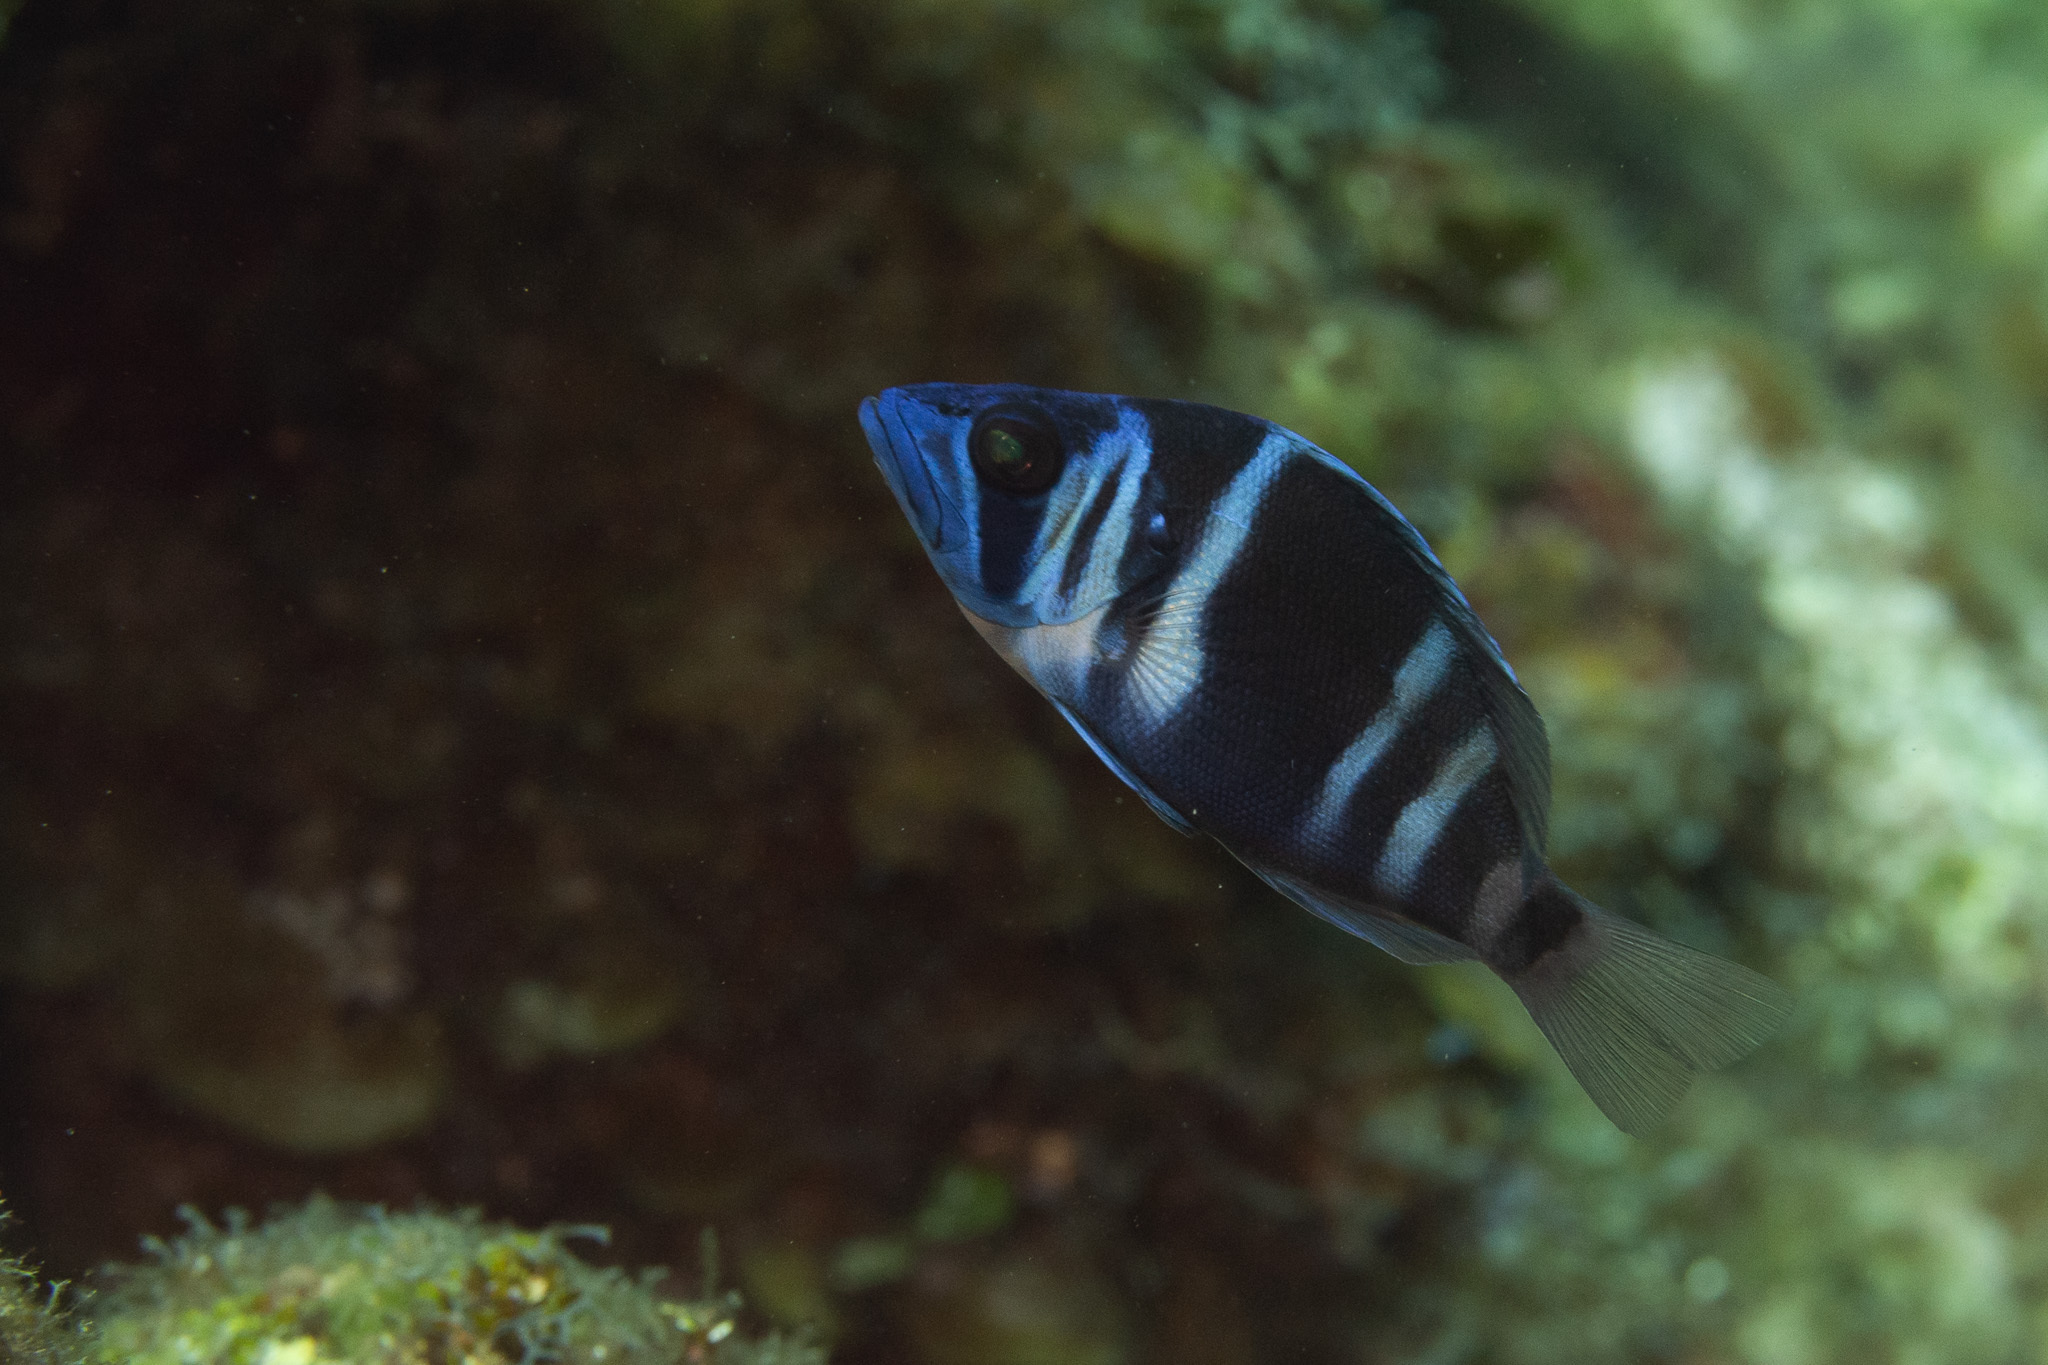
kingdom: Animalia
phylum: Chordata
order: Perciformes
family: Serranidae
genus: Hypoplectrus
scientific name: Hypoplectrus indigo
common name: Indigo hamlet
